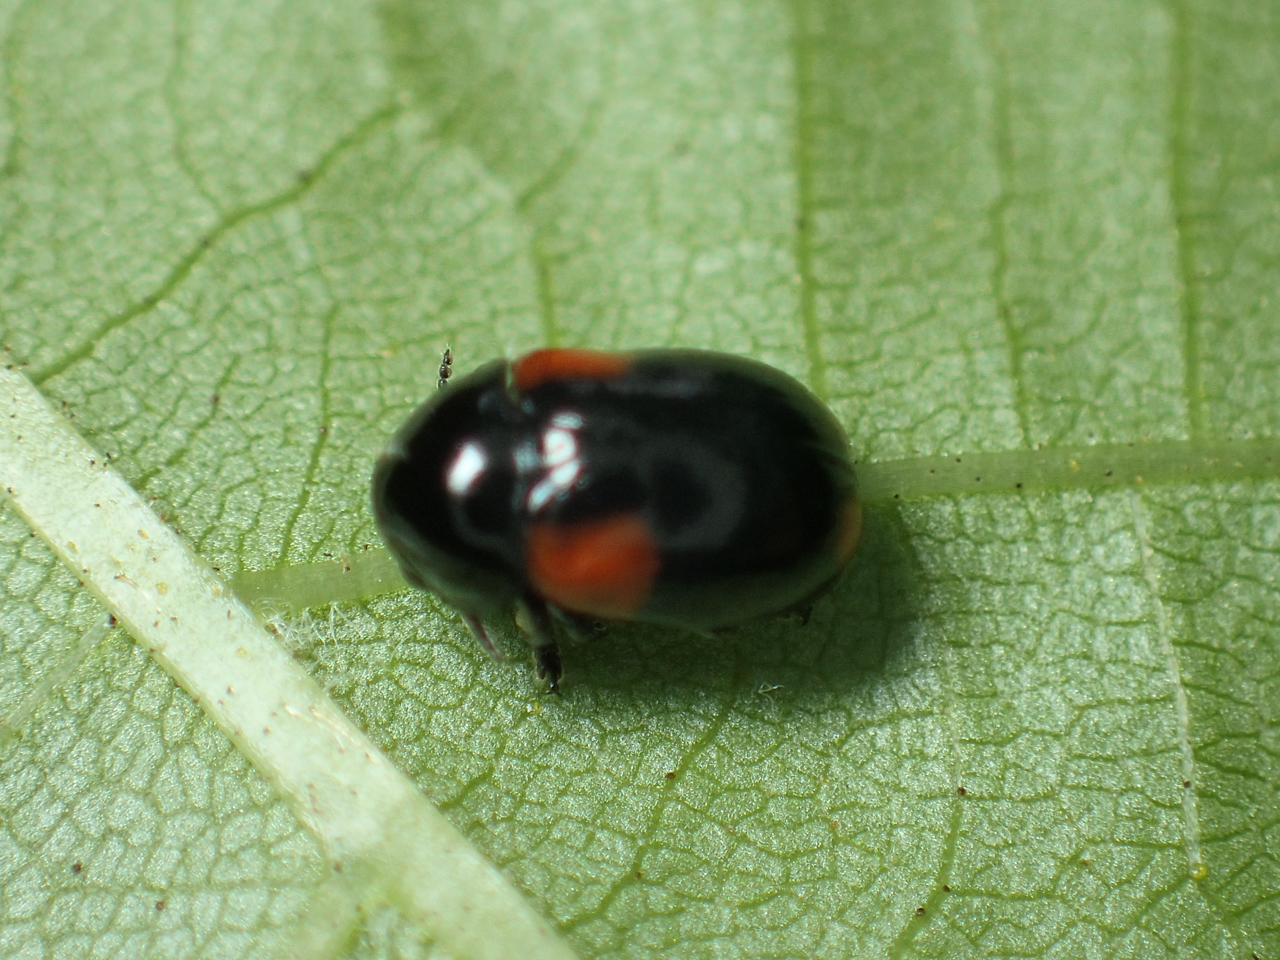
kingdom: Animalia
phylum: Arthropoda
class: Insecta
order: Coleoptera
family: Chrysomelidae
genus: Babia
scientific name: Babia quadriguttata
